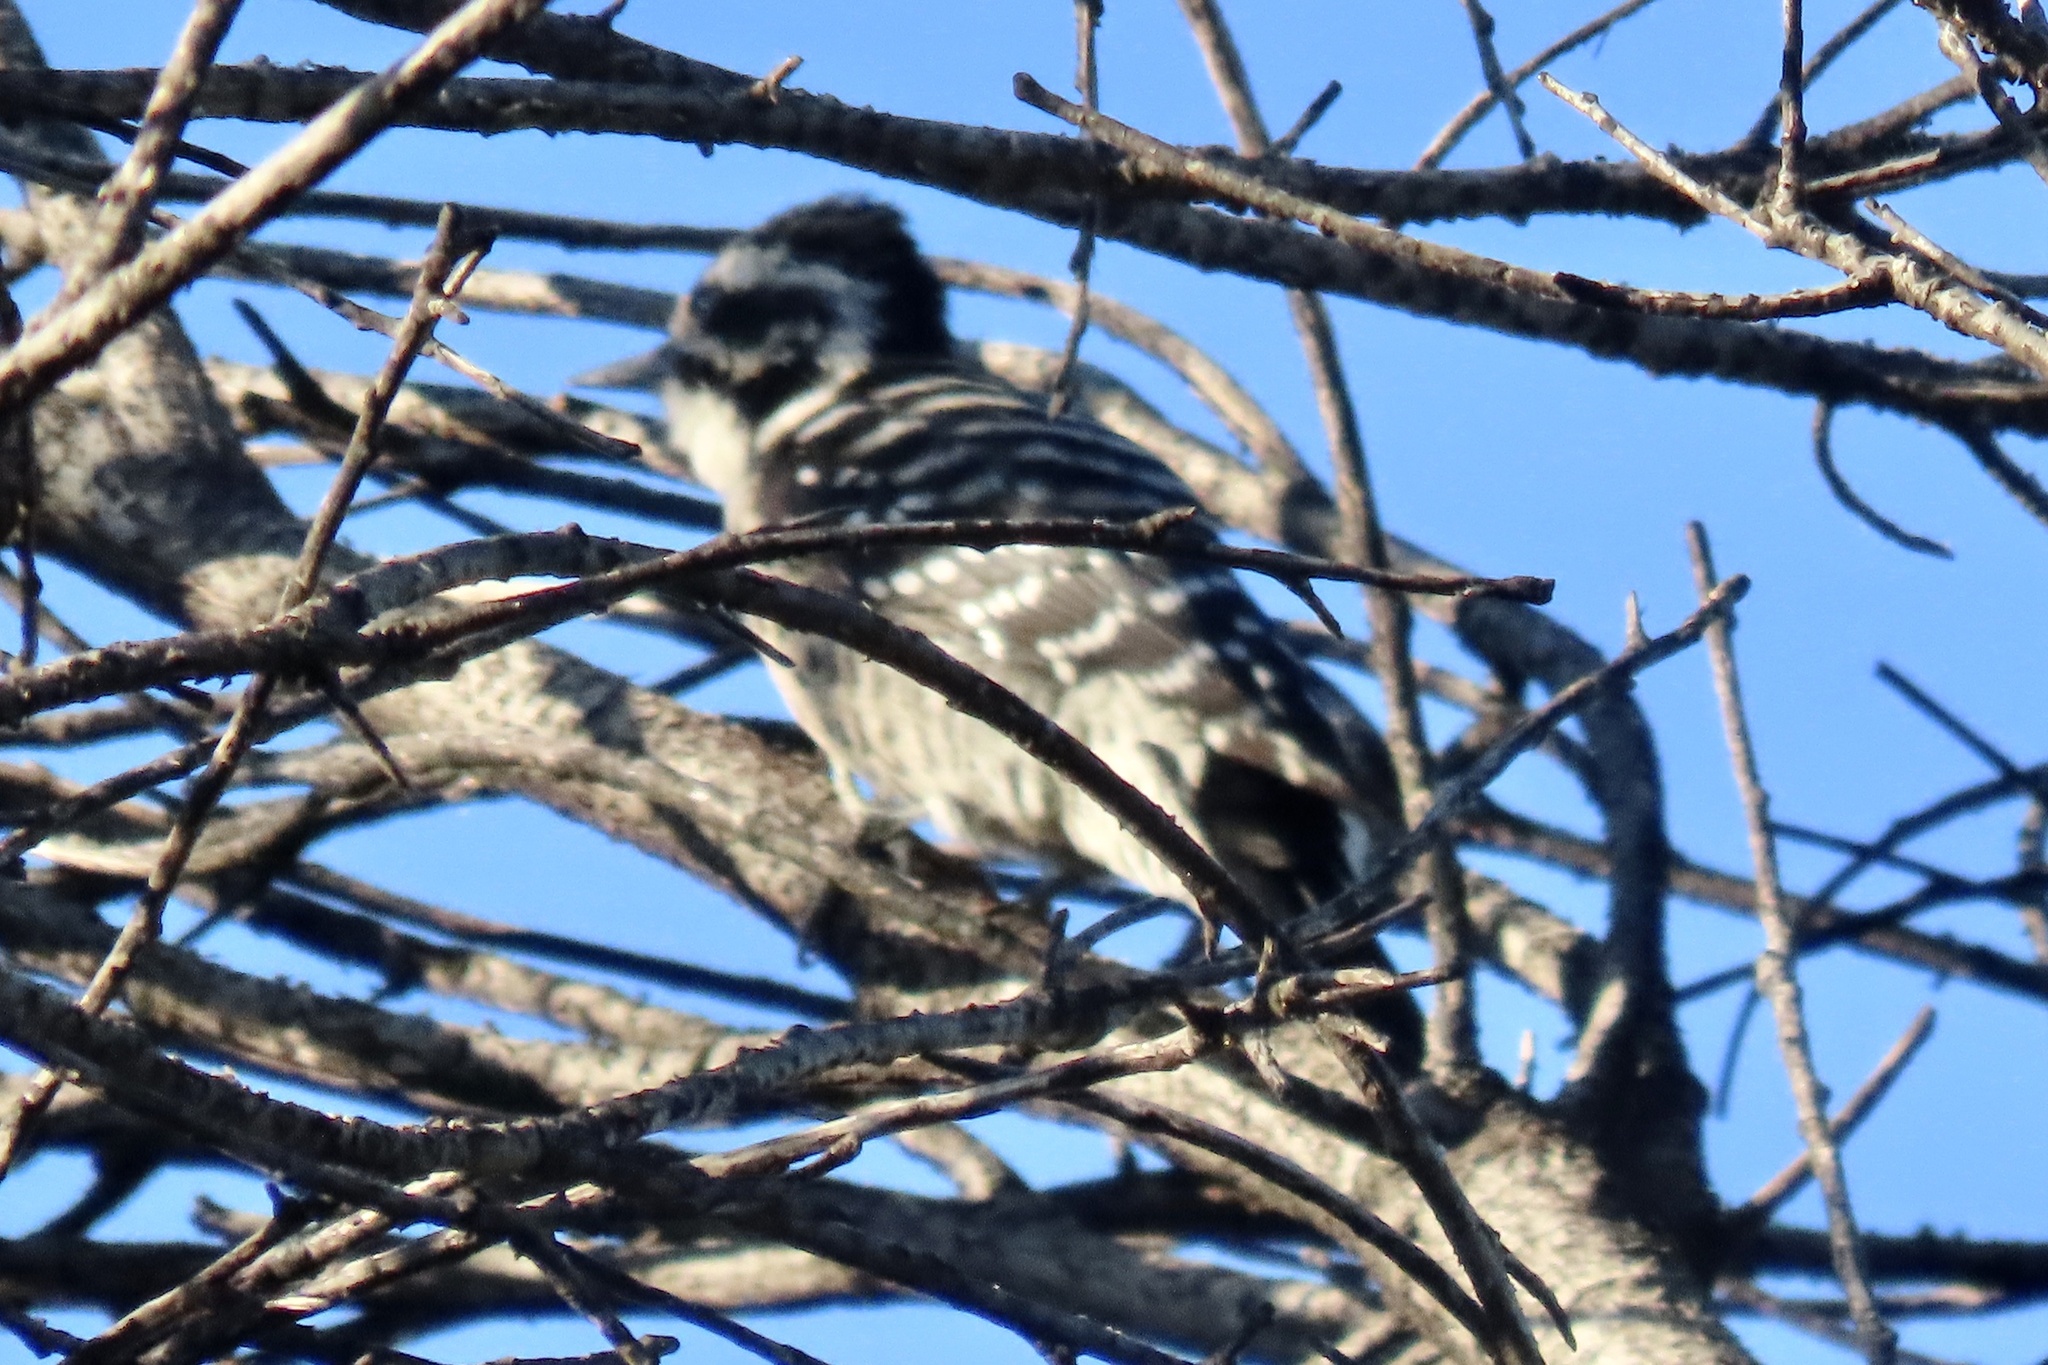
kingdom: Animalia
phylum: Chordata
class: Aves
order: Piciformes
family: Picidae
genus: Dryobates
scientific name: Dryobates nuttallii
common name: Nuttall's woodpecker
